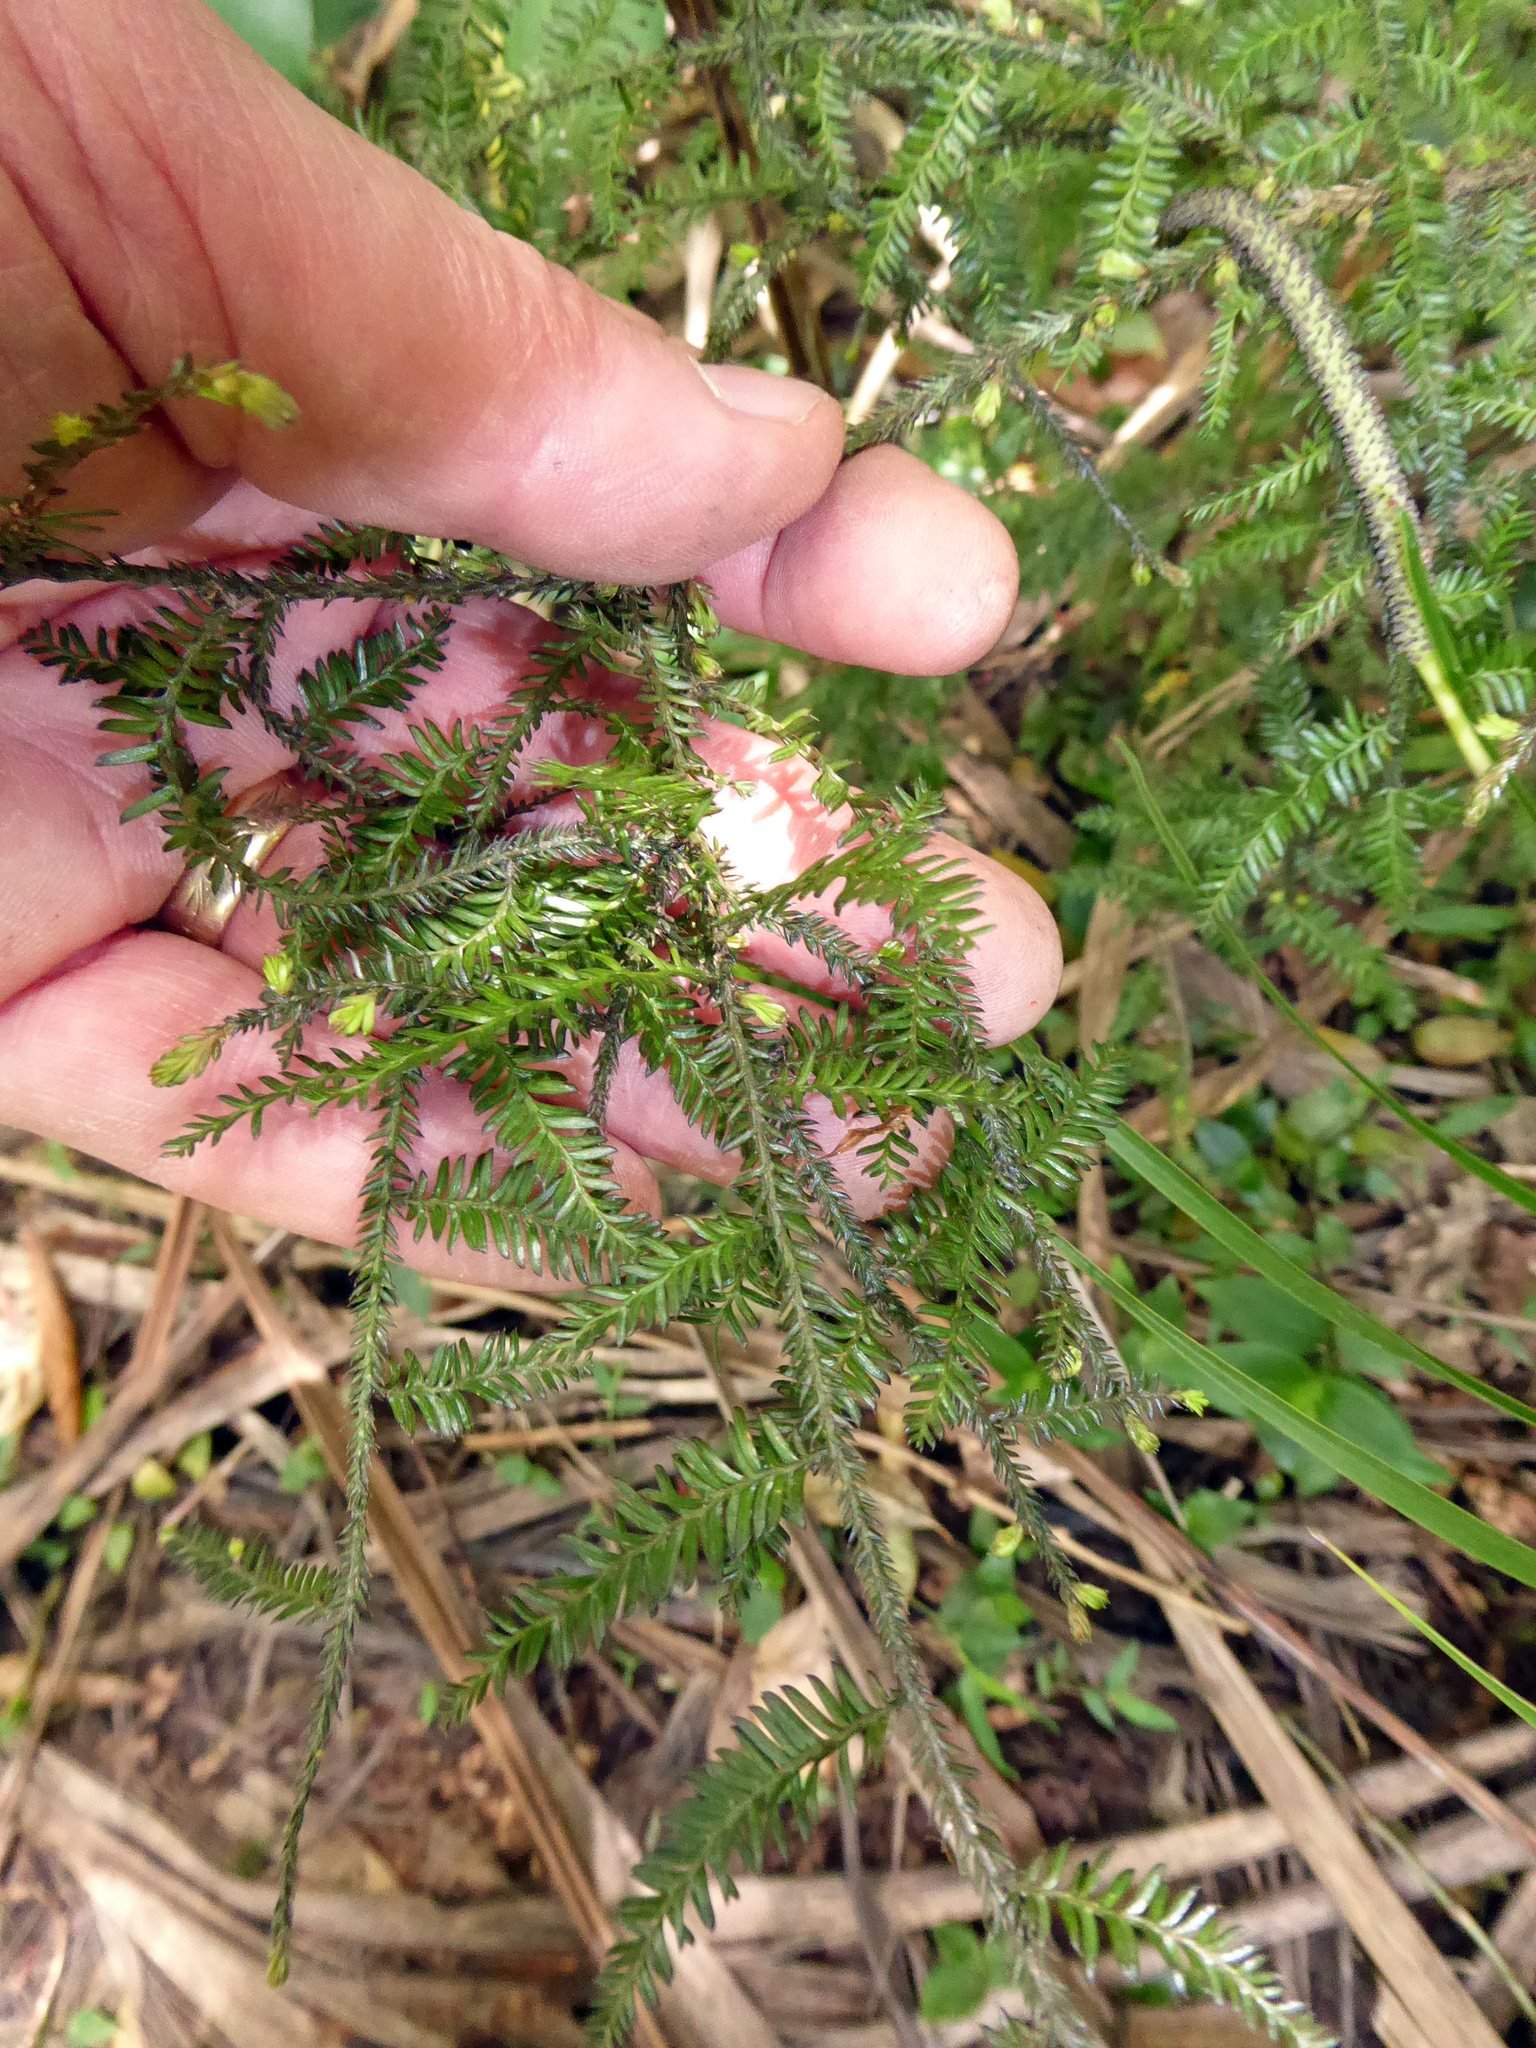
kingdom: Plantae
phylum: Tracheophyta
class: Pinopsida
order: Pinales
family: Podocarpaceae
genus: Dacrycarpus
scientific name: Dacrycarpus dacrydioides
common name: White pine
